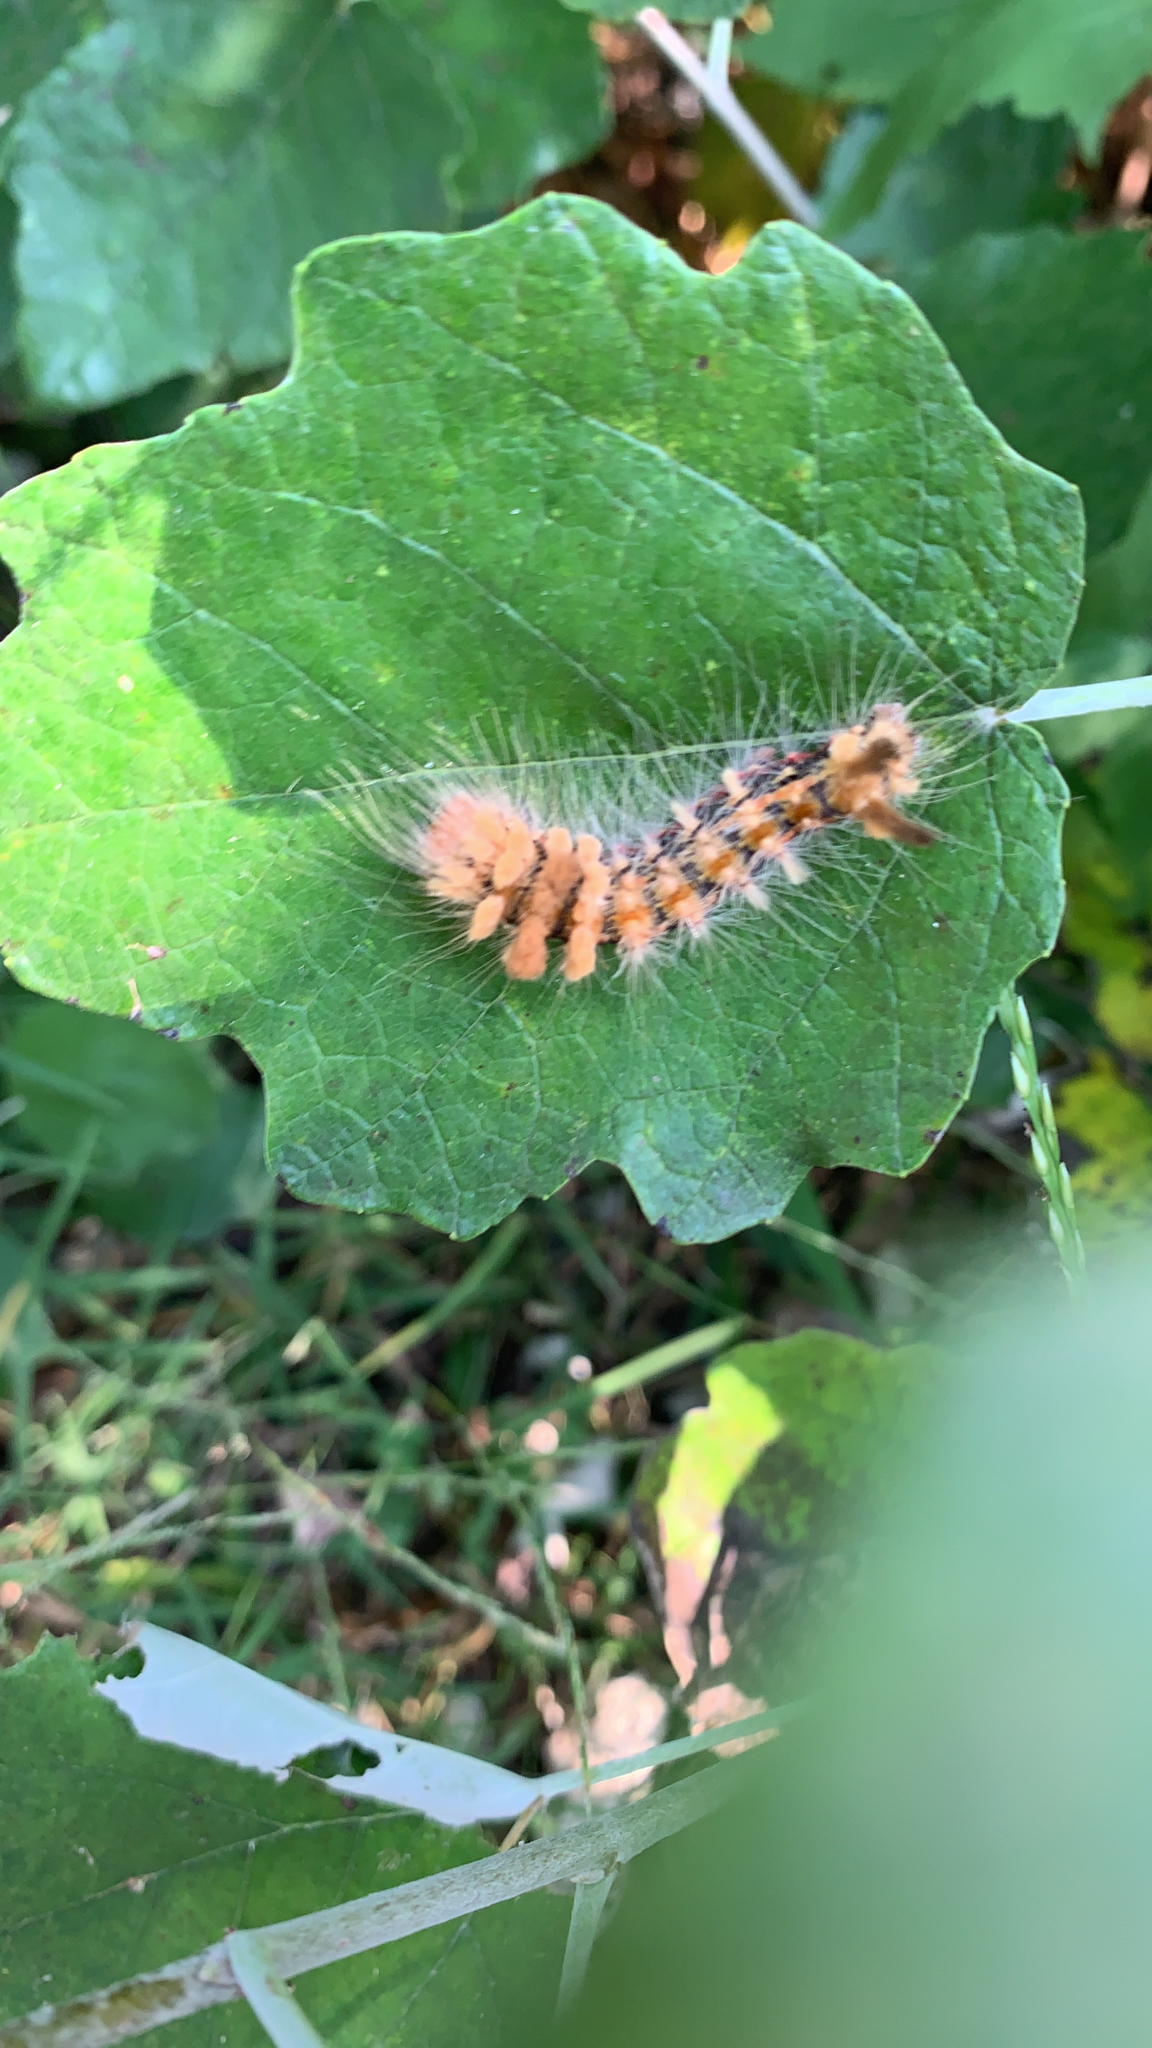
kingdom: Animalia
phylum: Arthropoda
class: Insecta
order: Lepidoptera
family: Noctuidae
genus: Acronicta
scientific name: Acronicta impleta
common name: Powdered dagger
